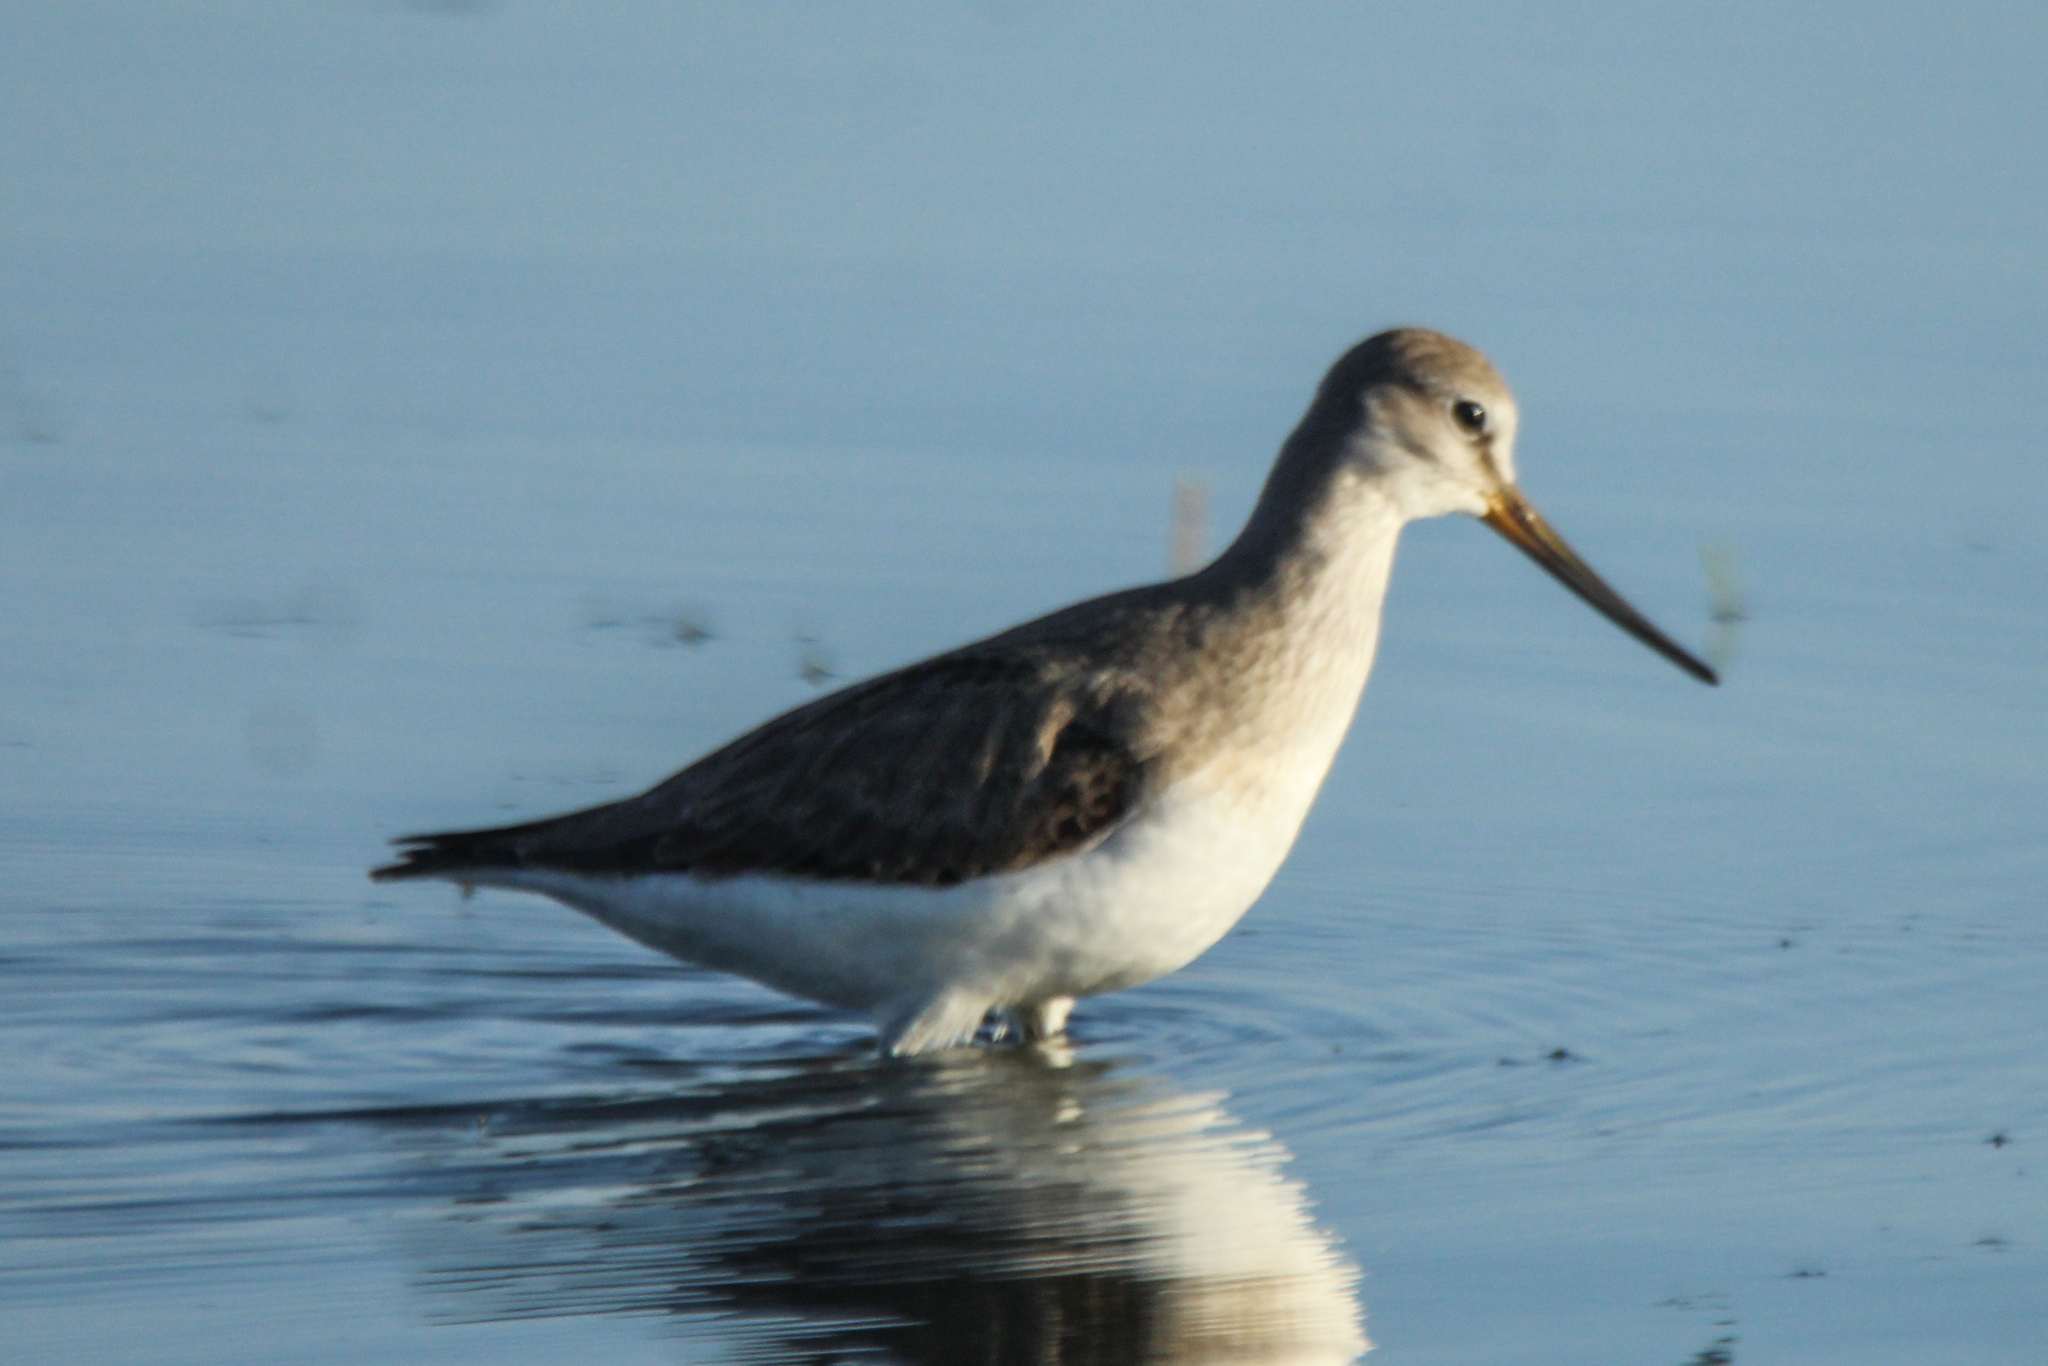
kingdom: Animalia
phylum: Chordata
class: Aves
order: Charadriiformes
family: Scolopacidae
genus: Xenus
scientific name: Xenus cinereus
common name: Terek sandpiper
